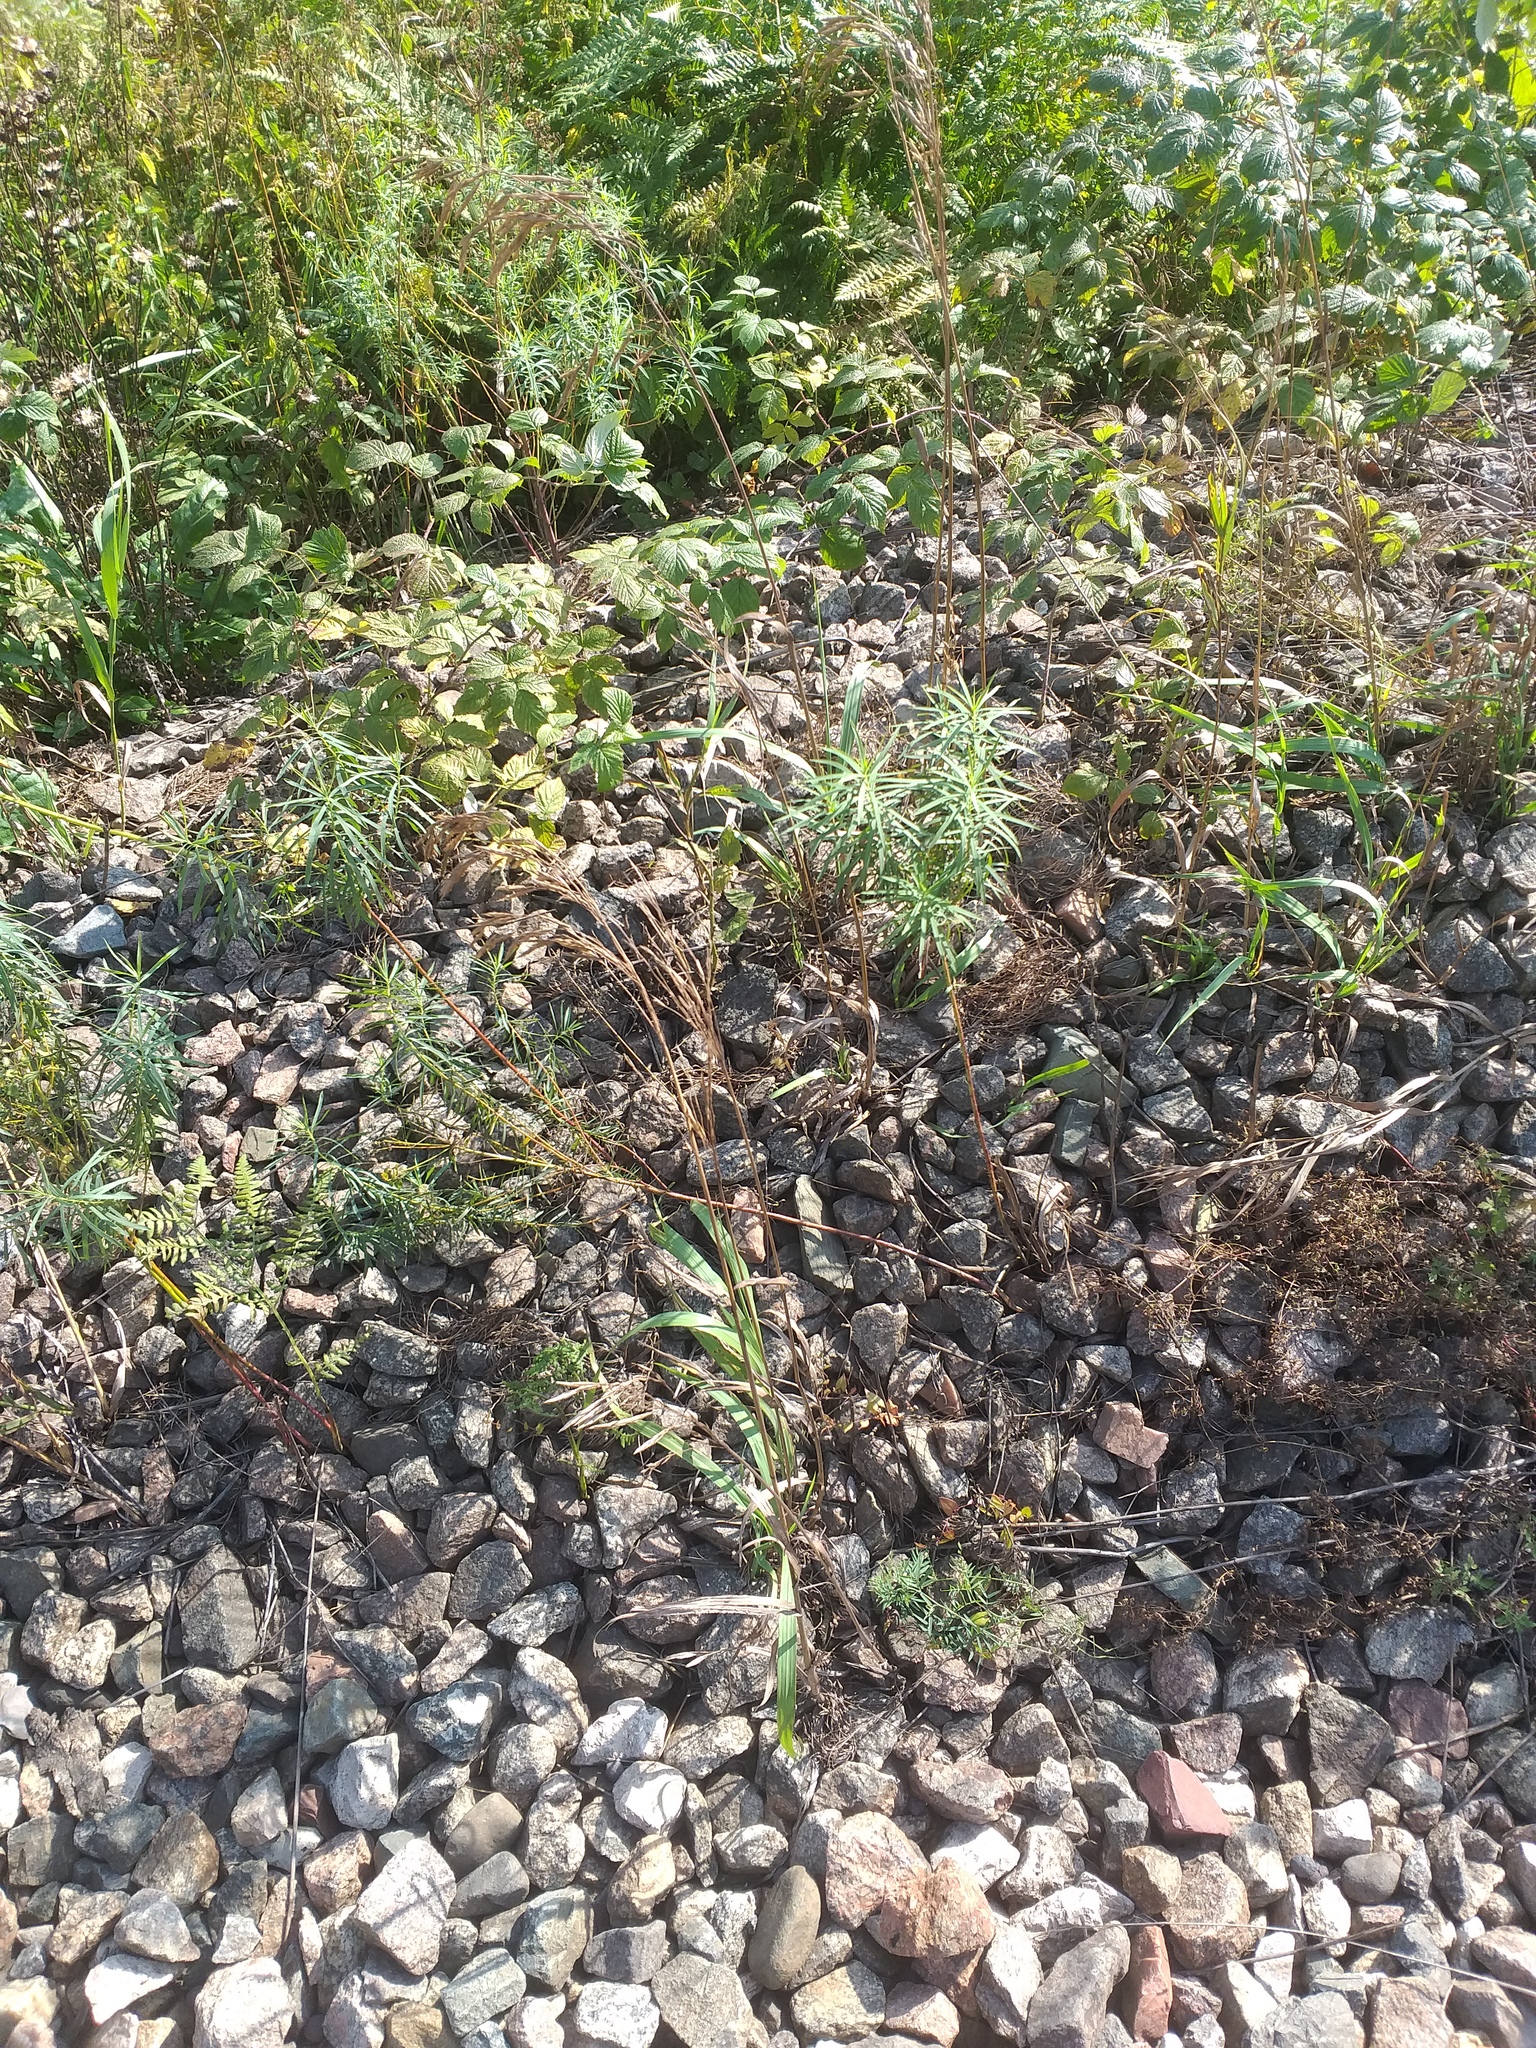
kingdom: Plantae
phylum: Tracheophyta
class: Liliopsida
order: Poales
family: Poaceae
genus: Bromus
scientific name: Bromus inermis
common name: Smooth brome
